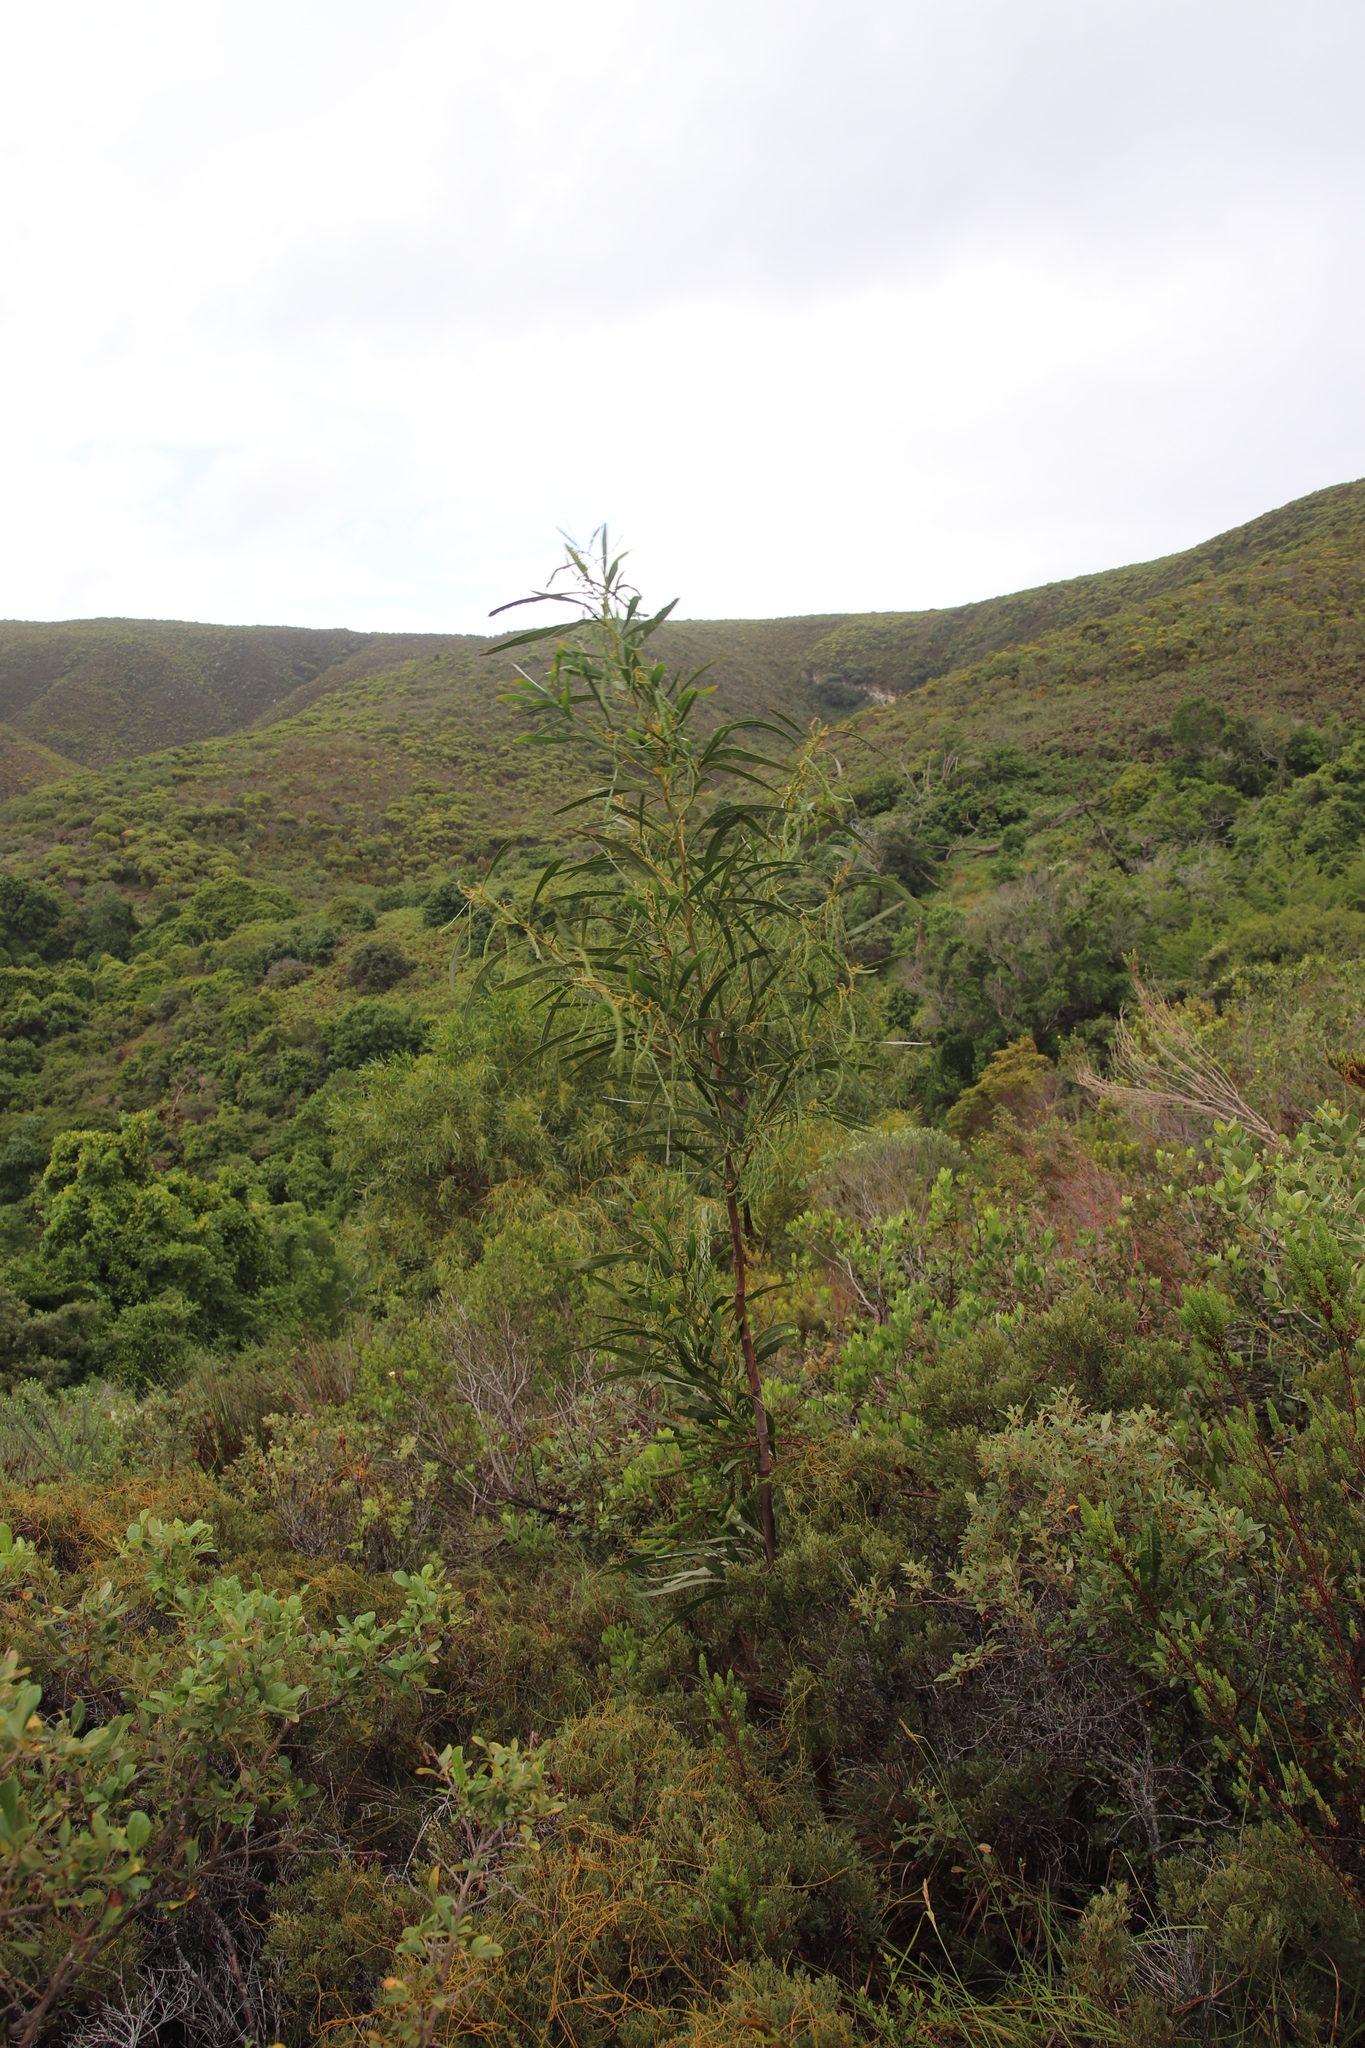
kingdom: Plantae
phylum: Tracheophyta
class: Magnoliopsida
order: Fabales
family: Fabaceae
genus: Acacia
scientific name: Acacia saligna
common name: Orange wattle
